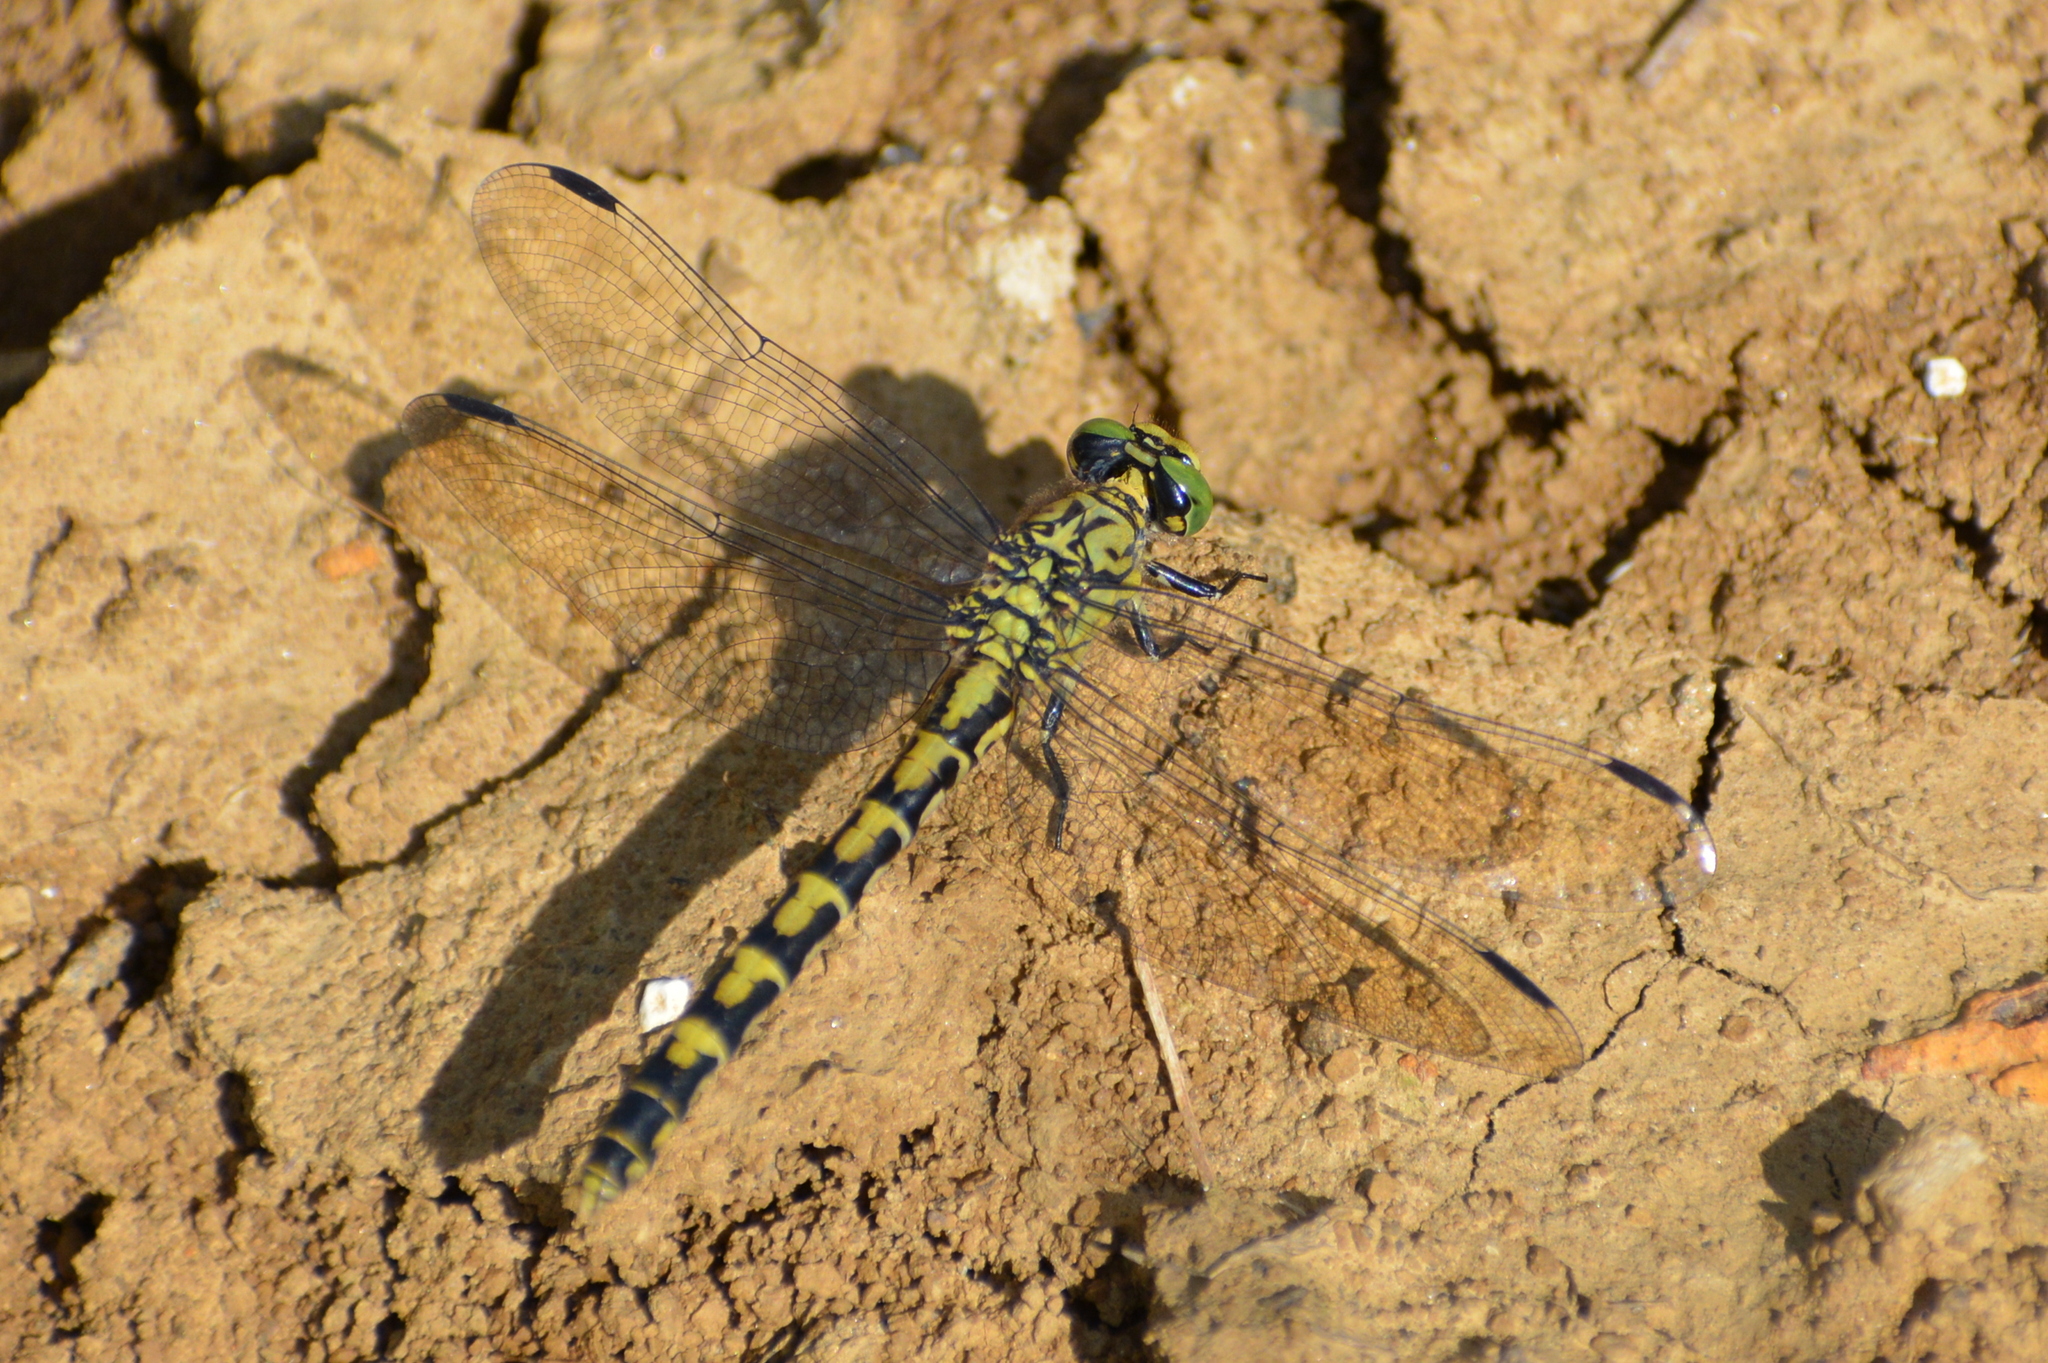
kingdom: Animalia
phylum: Arthropoda
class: Insecta
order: Odonata
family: Gomphidae
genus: Onychogomphus
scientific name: Onychogomphus forcipatus
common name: Small pincertail
